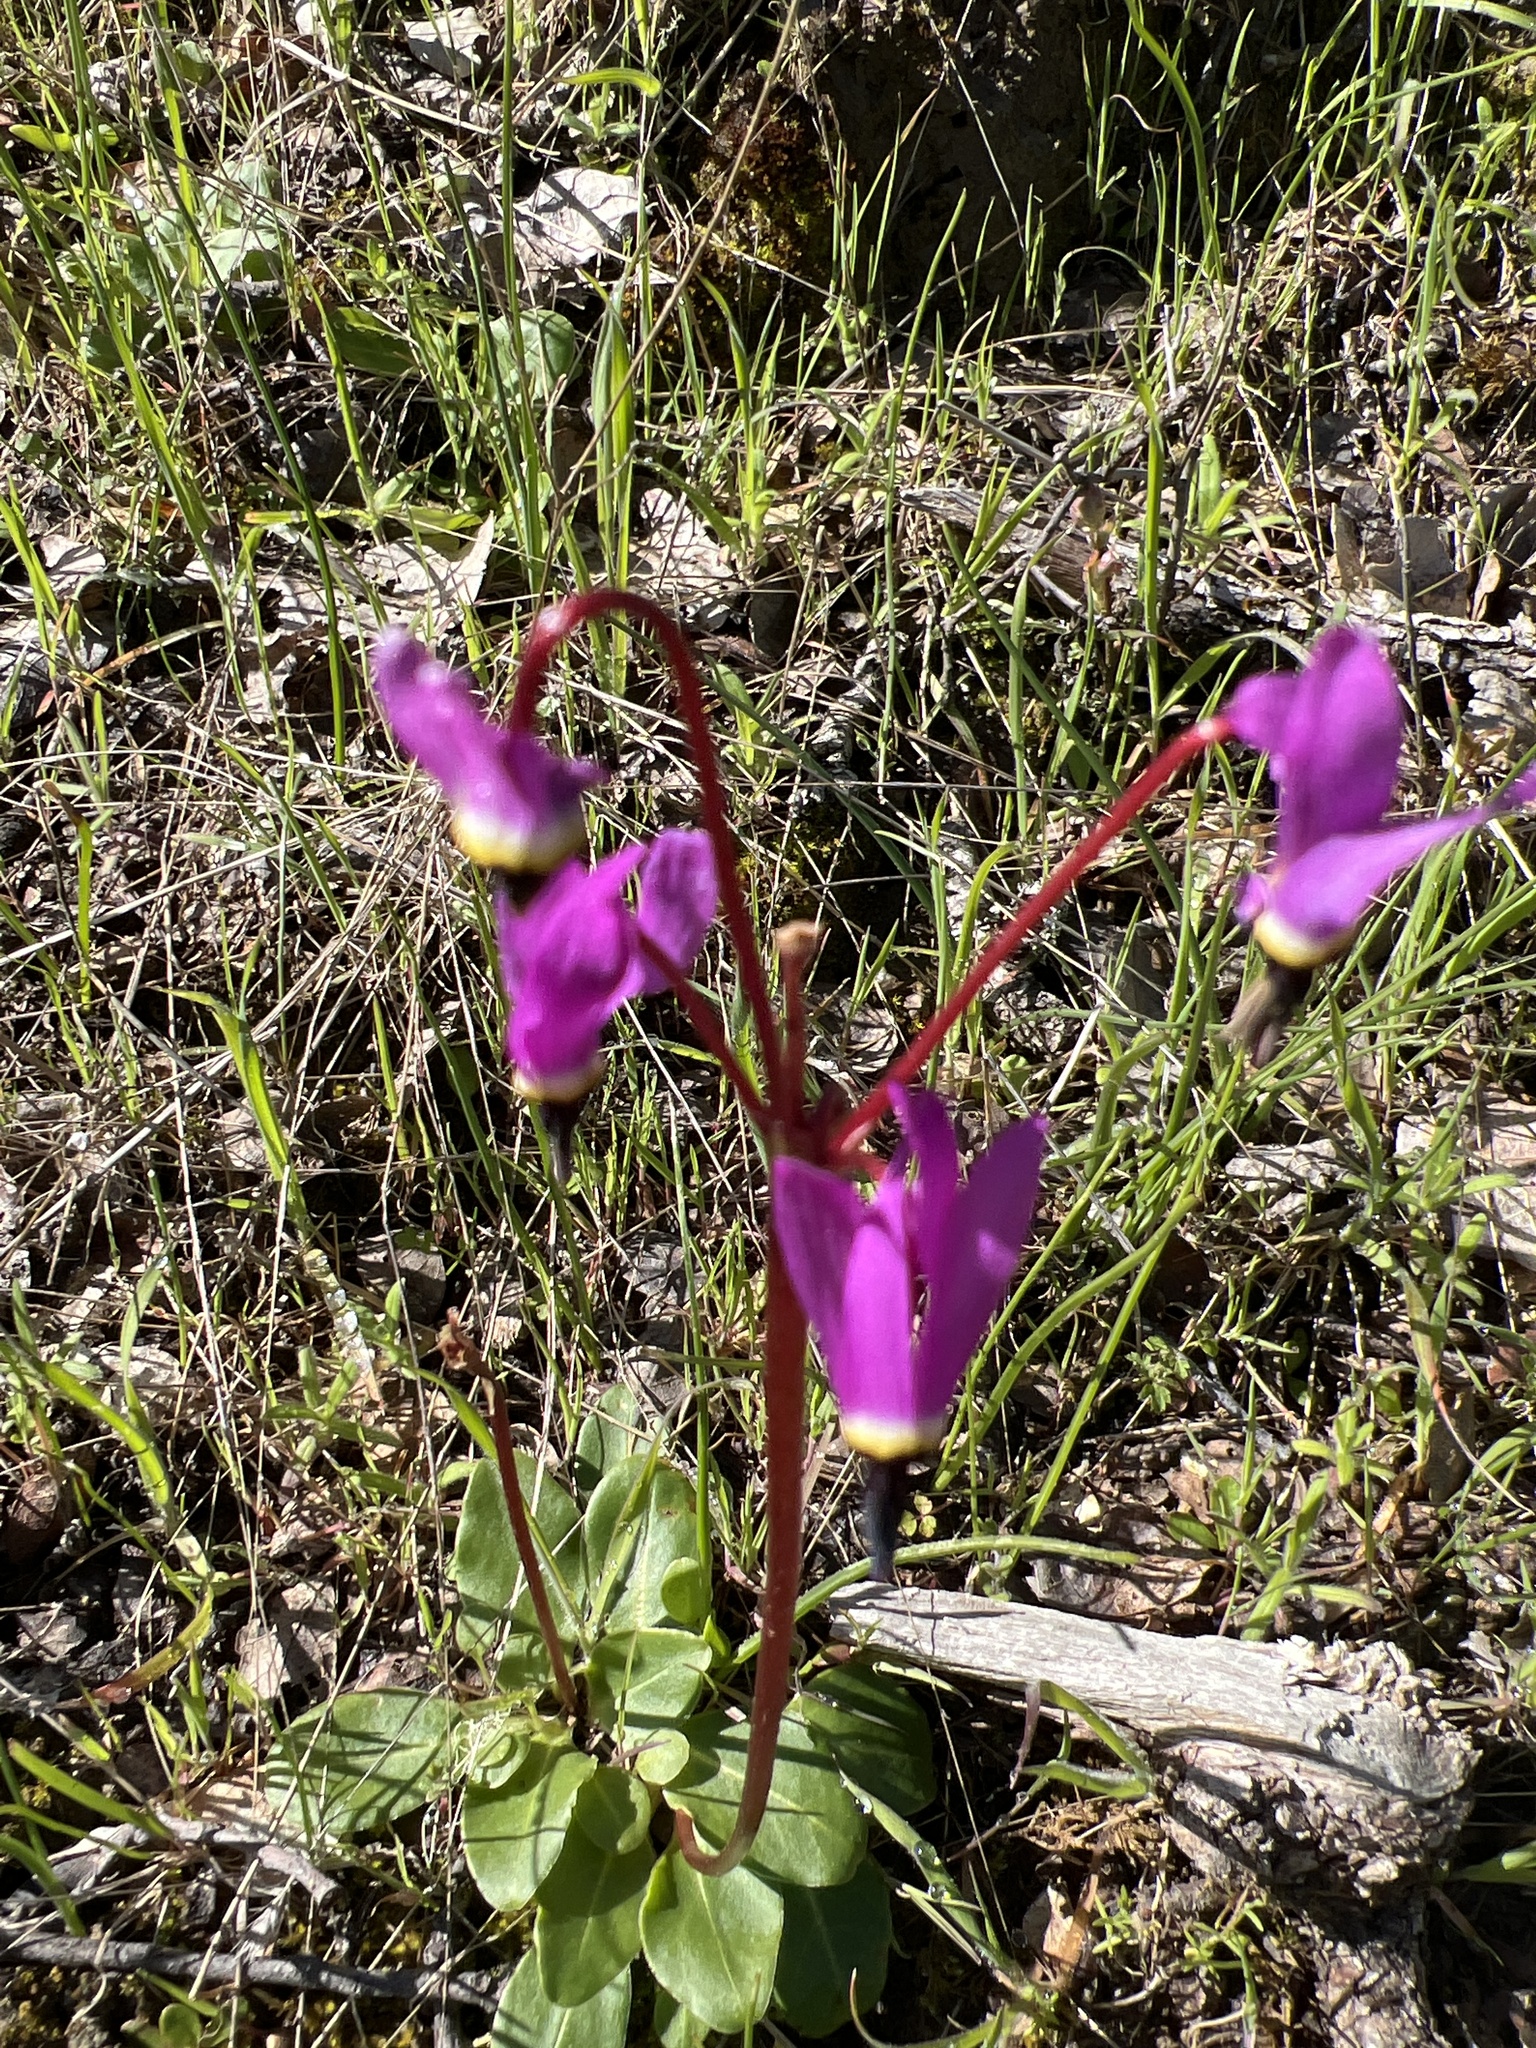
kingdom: Plantae
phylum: Tracheophyta
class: Magnoliopsida
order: Ericales
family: Primulaceae
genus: Dodecatheon
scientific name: Dodecatheon hendersonii
